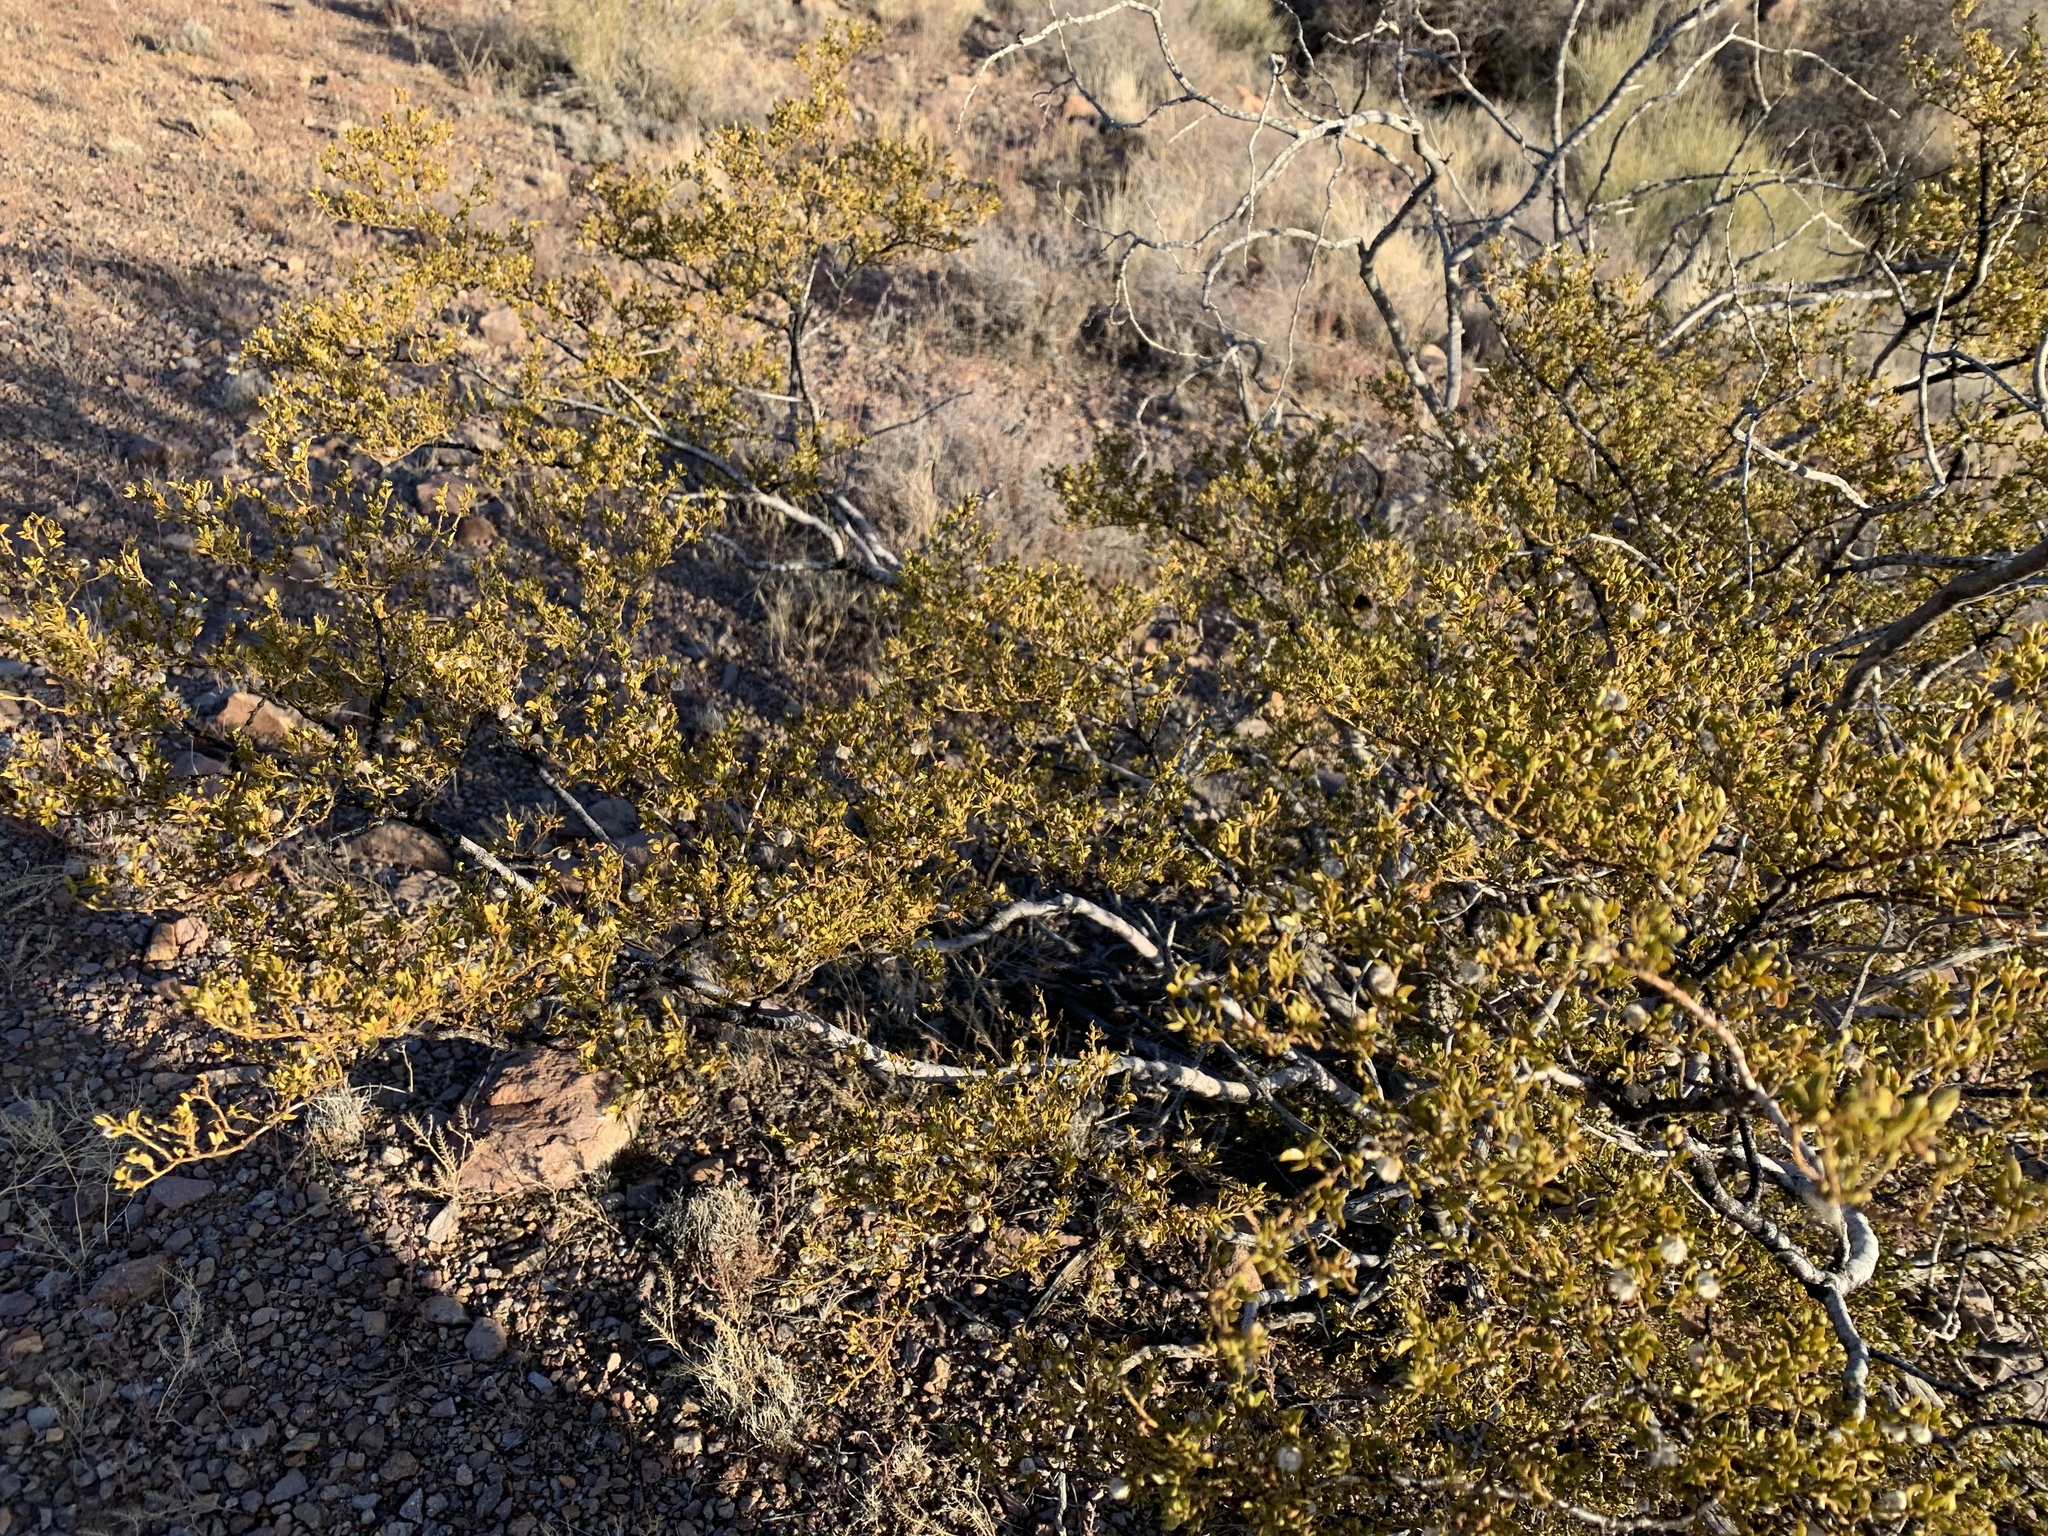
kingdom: Plantae
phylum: Tracheophyta
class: Magnoliopsida
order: Zygophyllales
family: Zygophyllaceae
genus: Larrea
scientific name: Larrea tridentata
